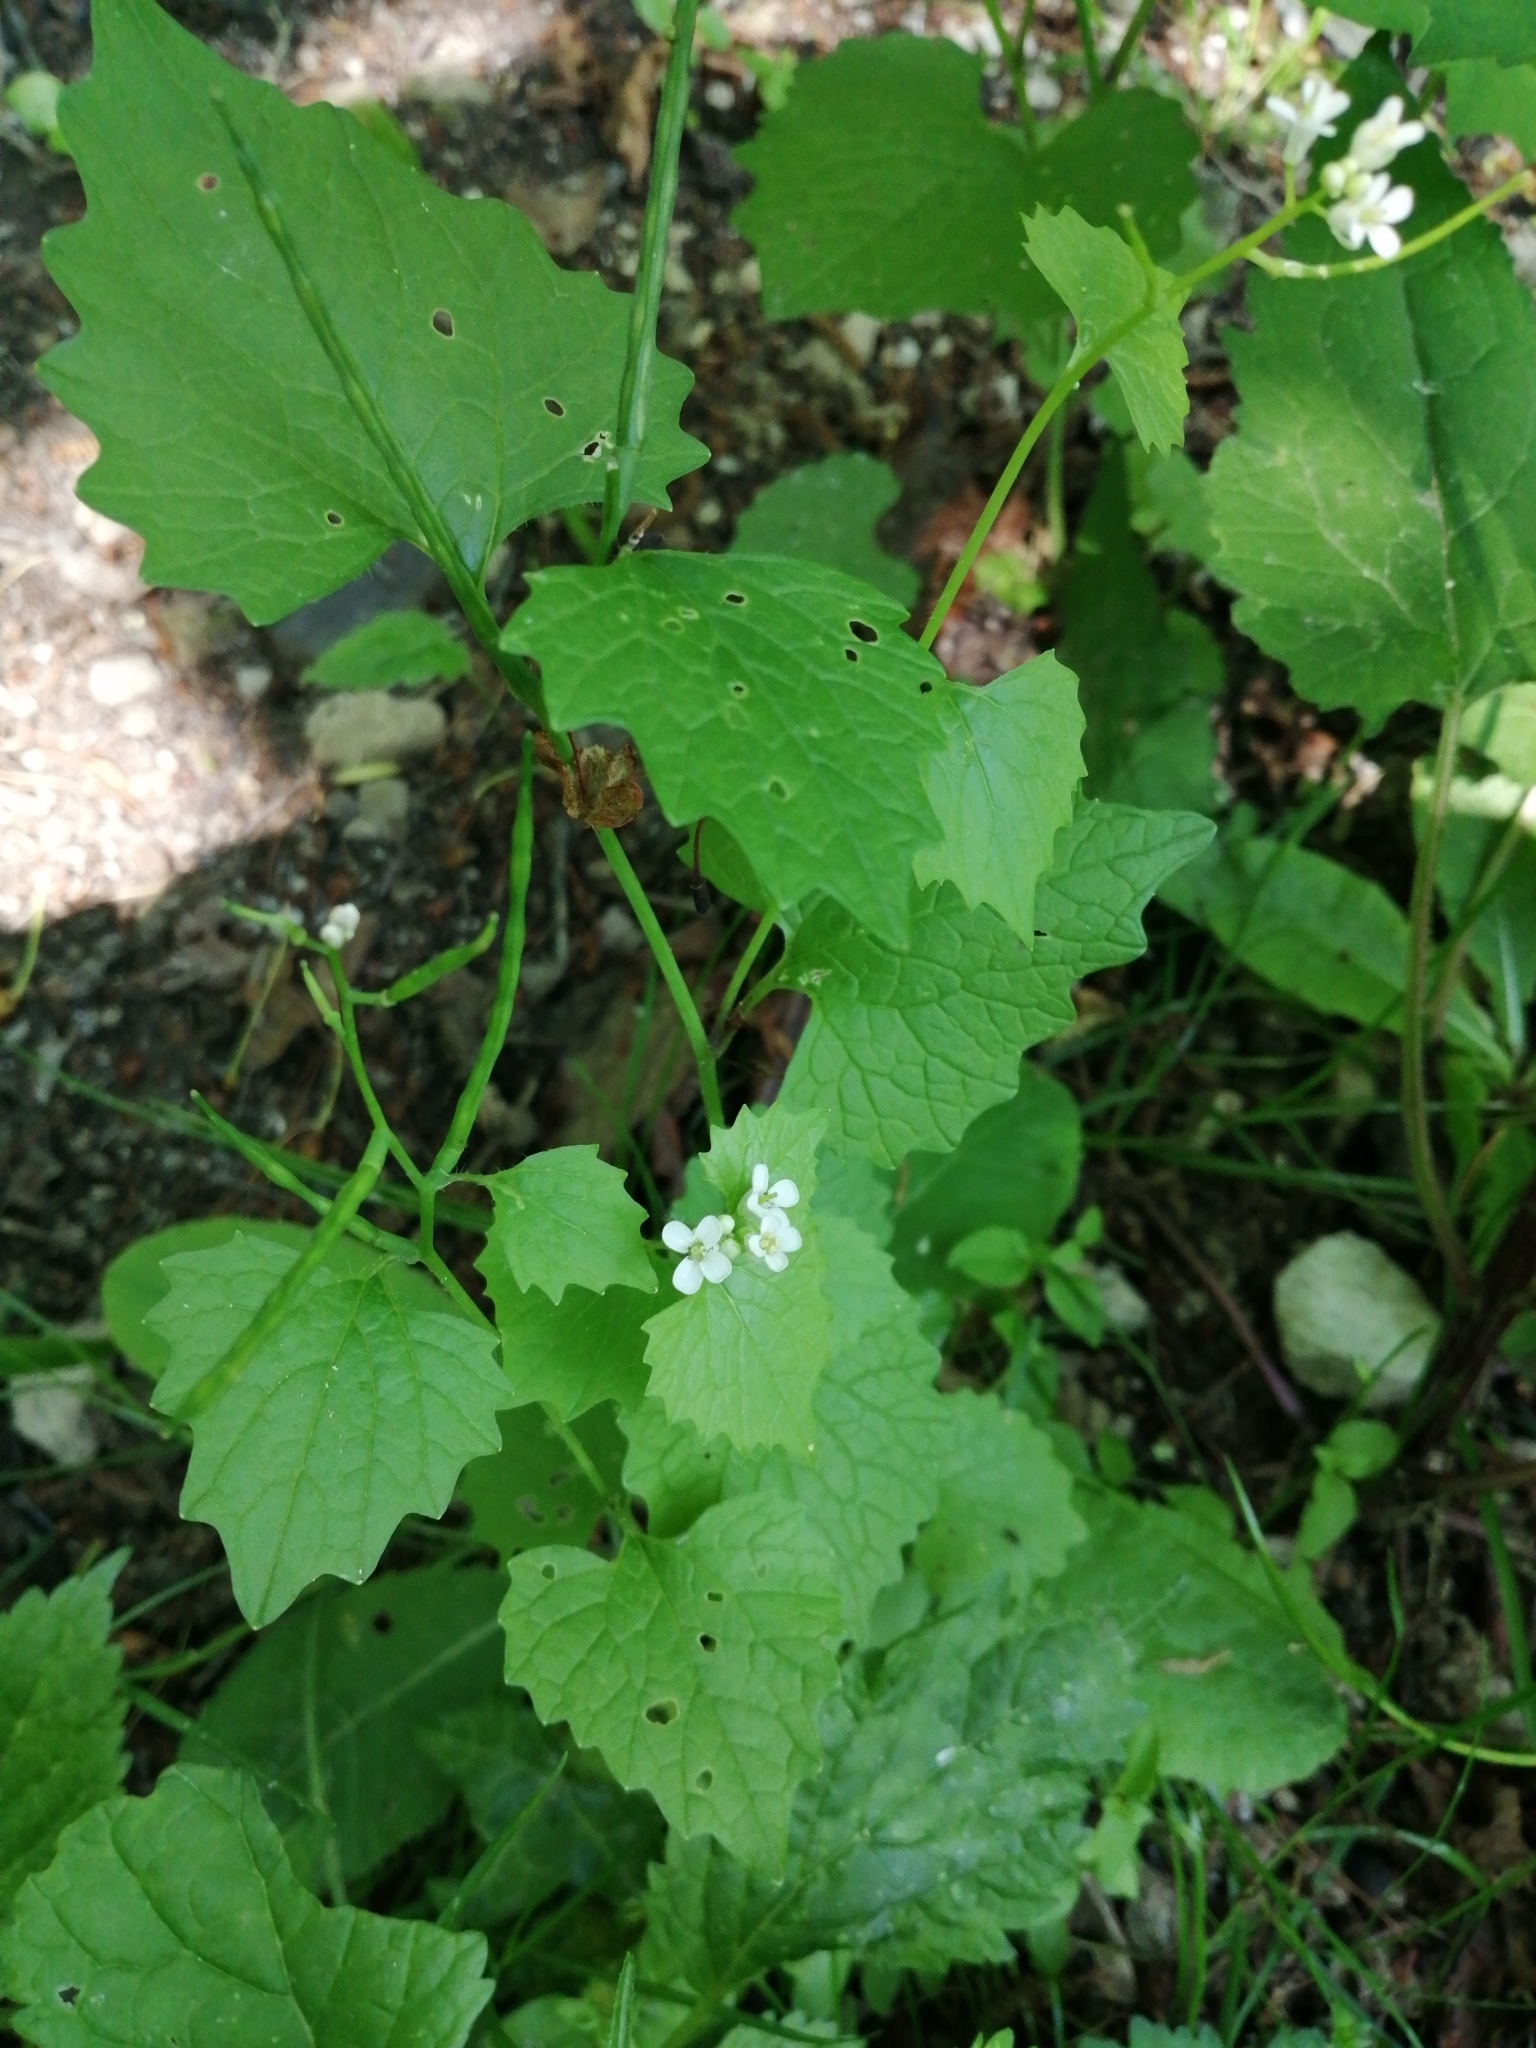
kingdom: Plantae
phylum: Tracheophyta
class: Magnoliopsida
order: Brassicales
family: Brassicaceae
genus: Alliaria
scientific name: Alliaria petiolata
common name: Garlic mustard
